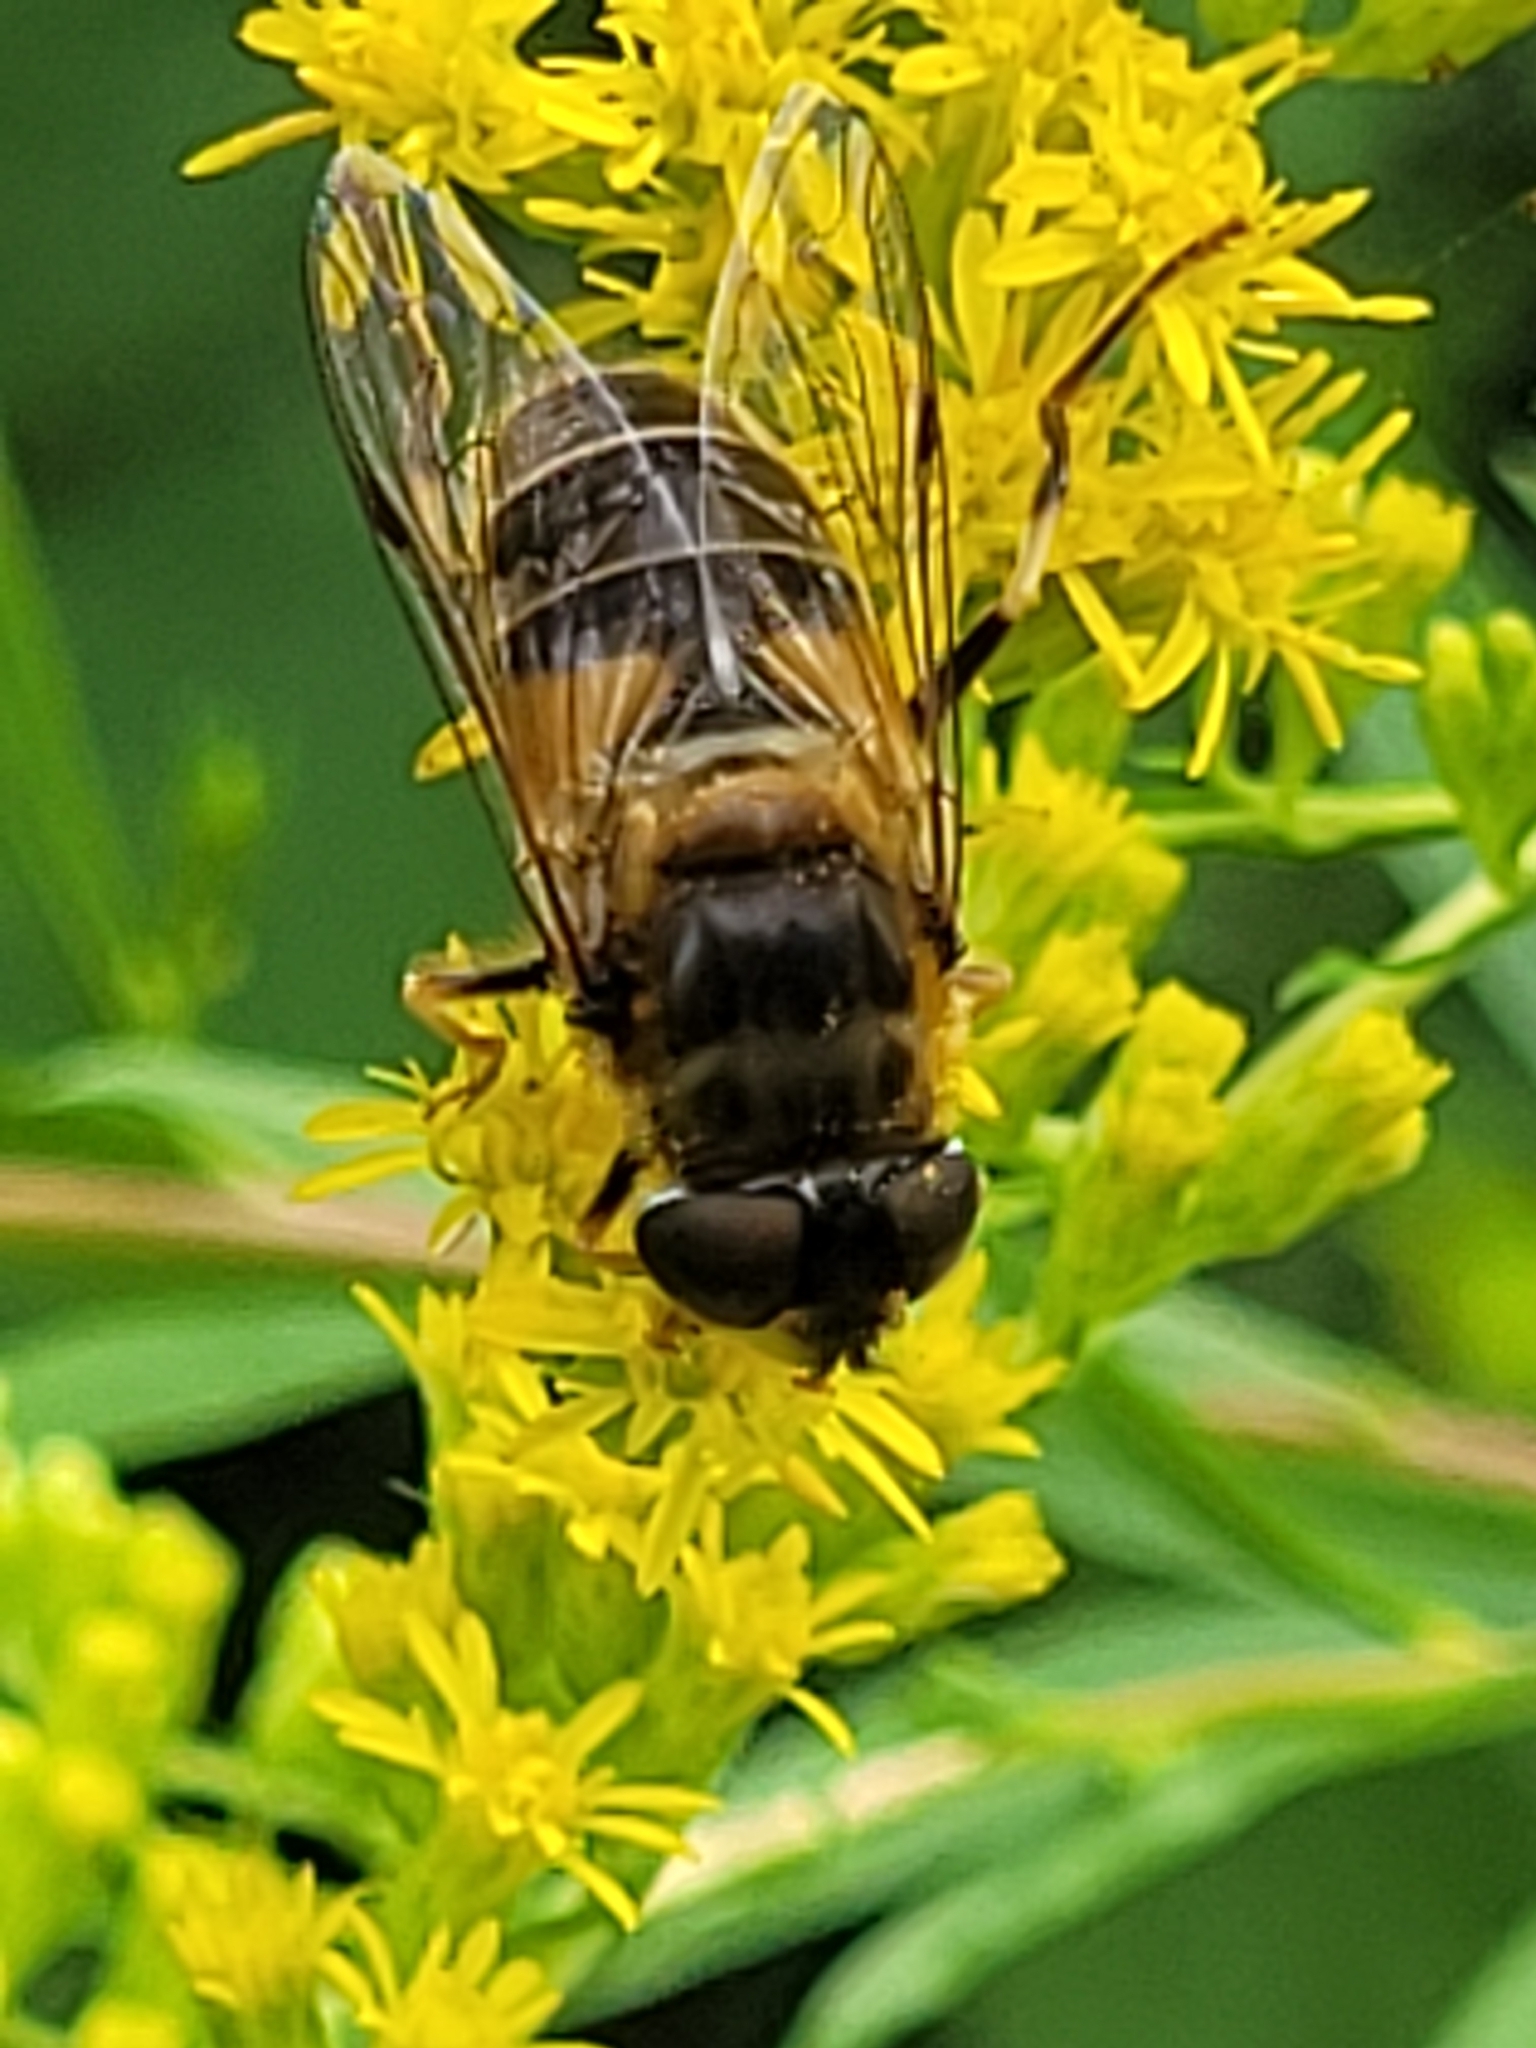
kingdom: Animalia
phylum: Arthropoda
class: Insecta
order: Diptera
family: Syrphidae
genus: Eristalis
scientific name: Eristalis pertinax
